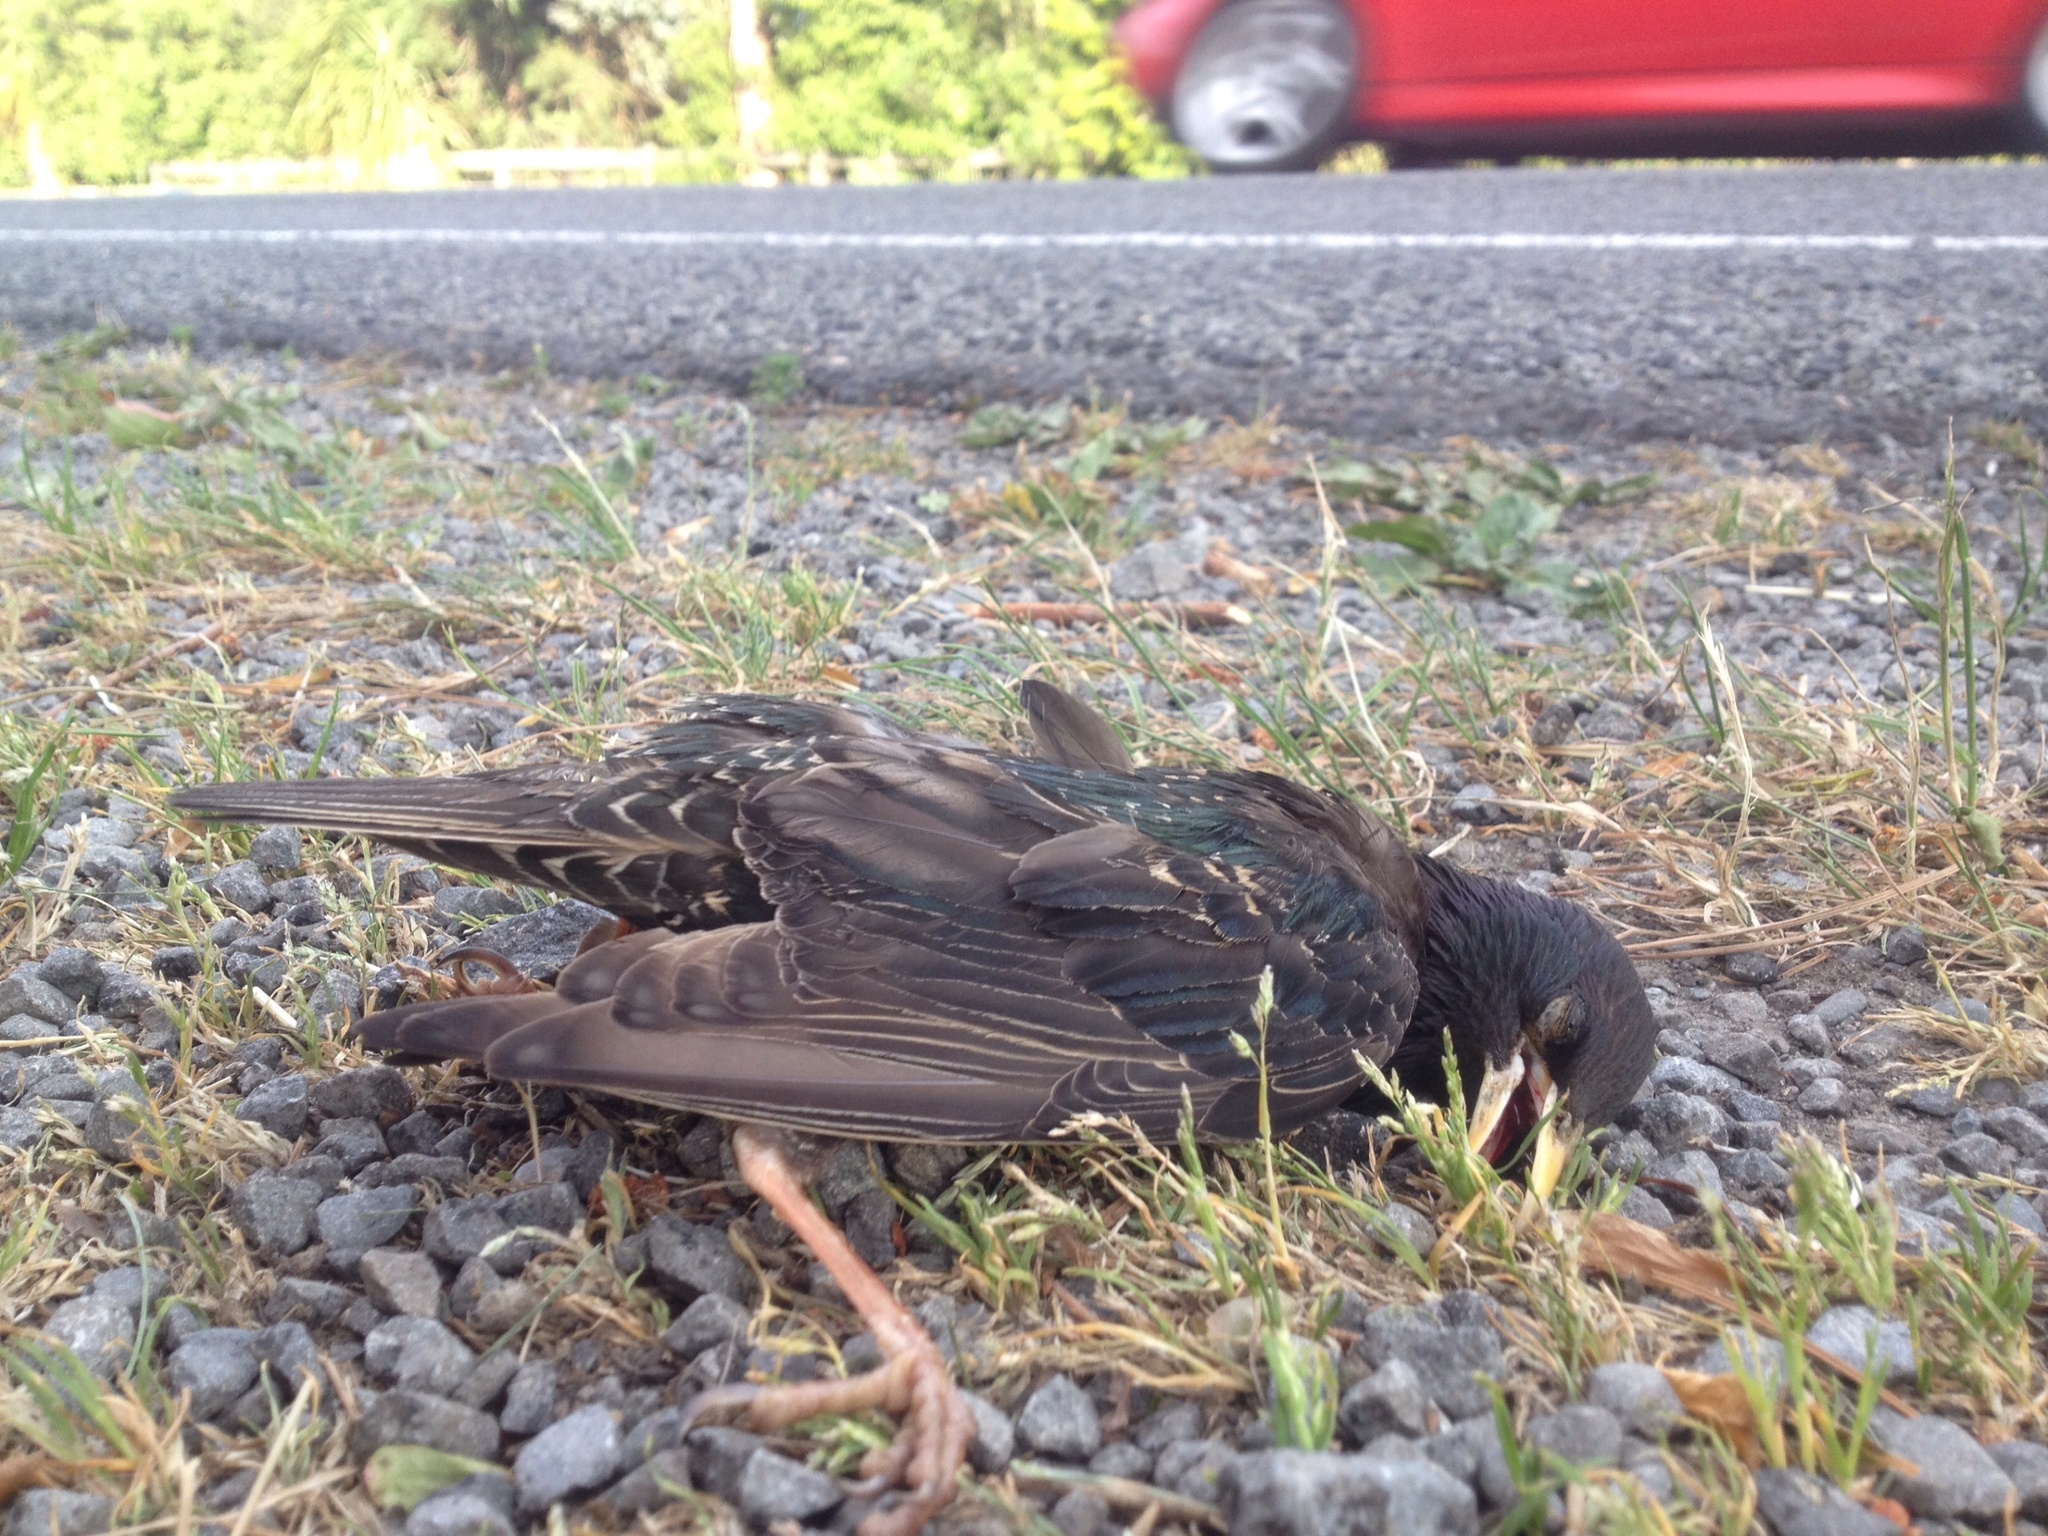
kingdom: Animalia
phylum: Chordata
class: Aves
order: Passeriformes
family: Sturnidae
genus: Sturnus
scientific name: Sturnus vulgaris
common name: Common starling
